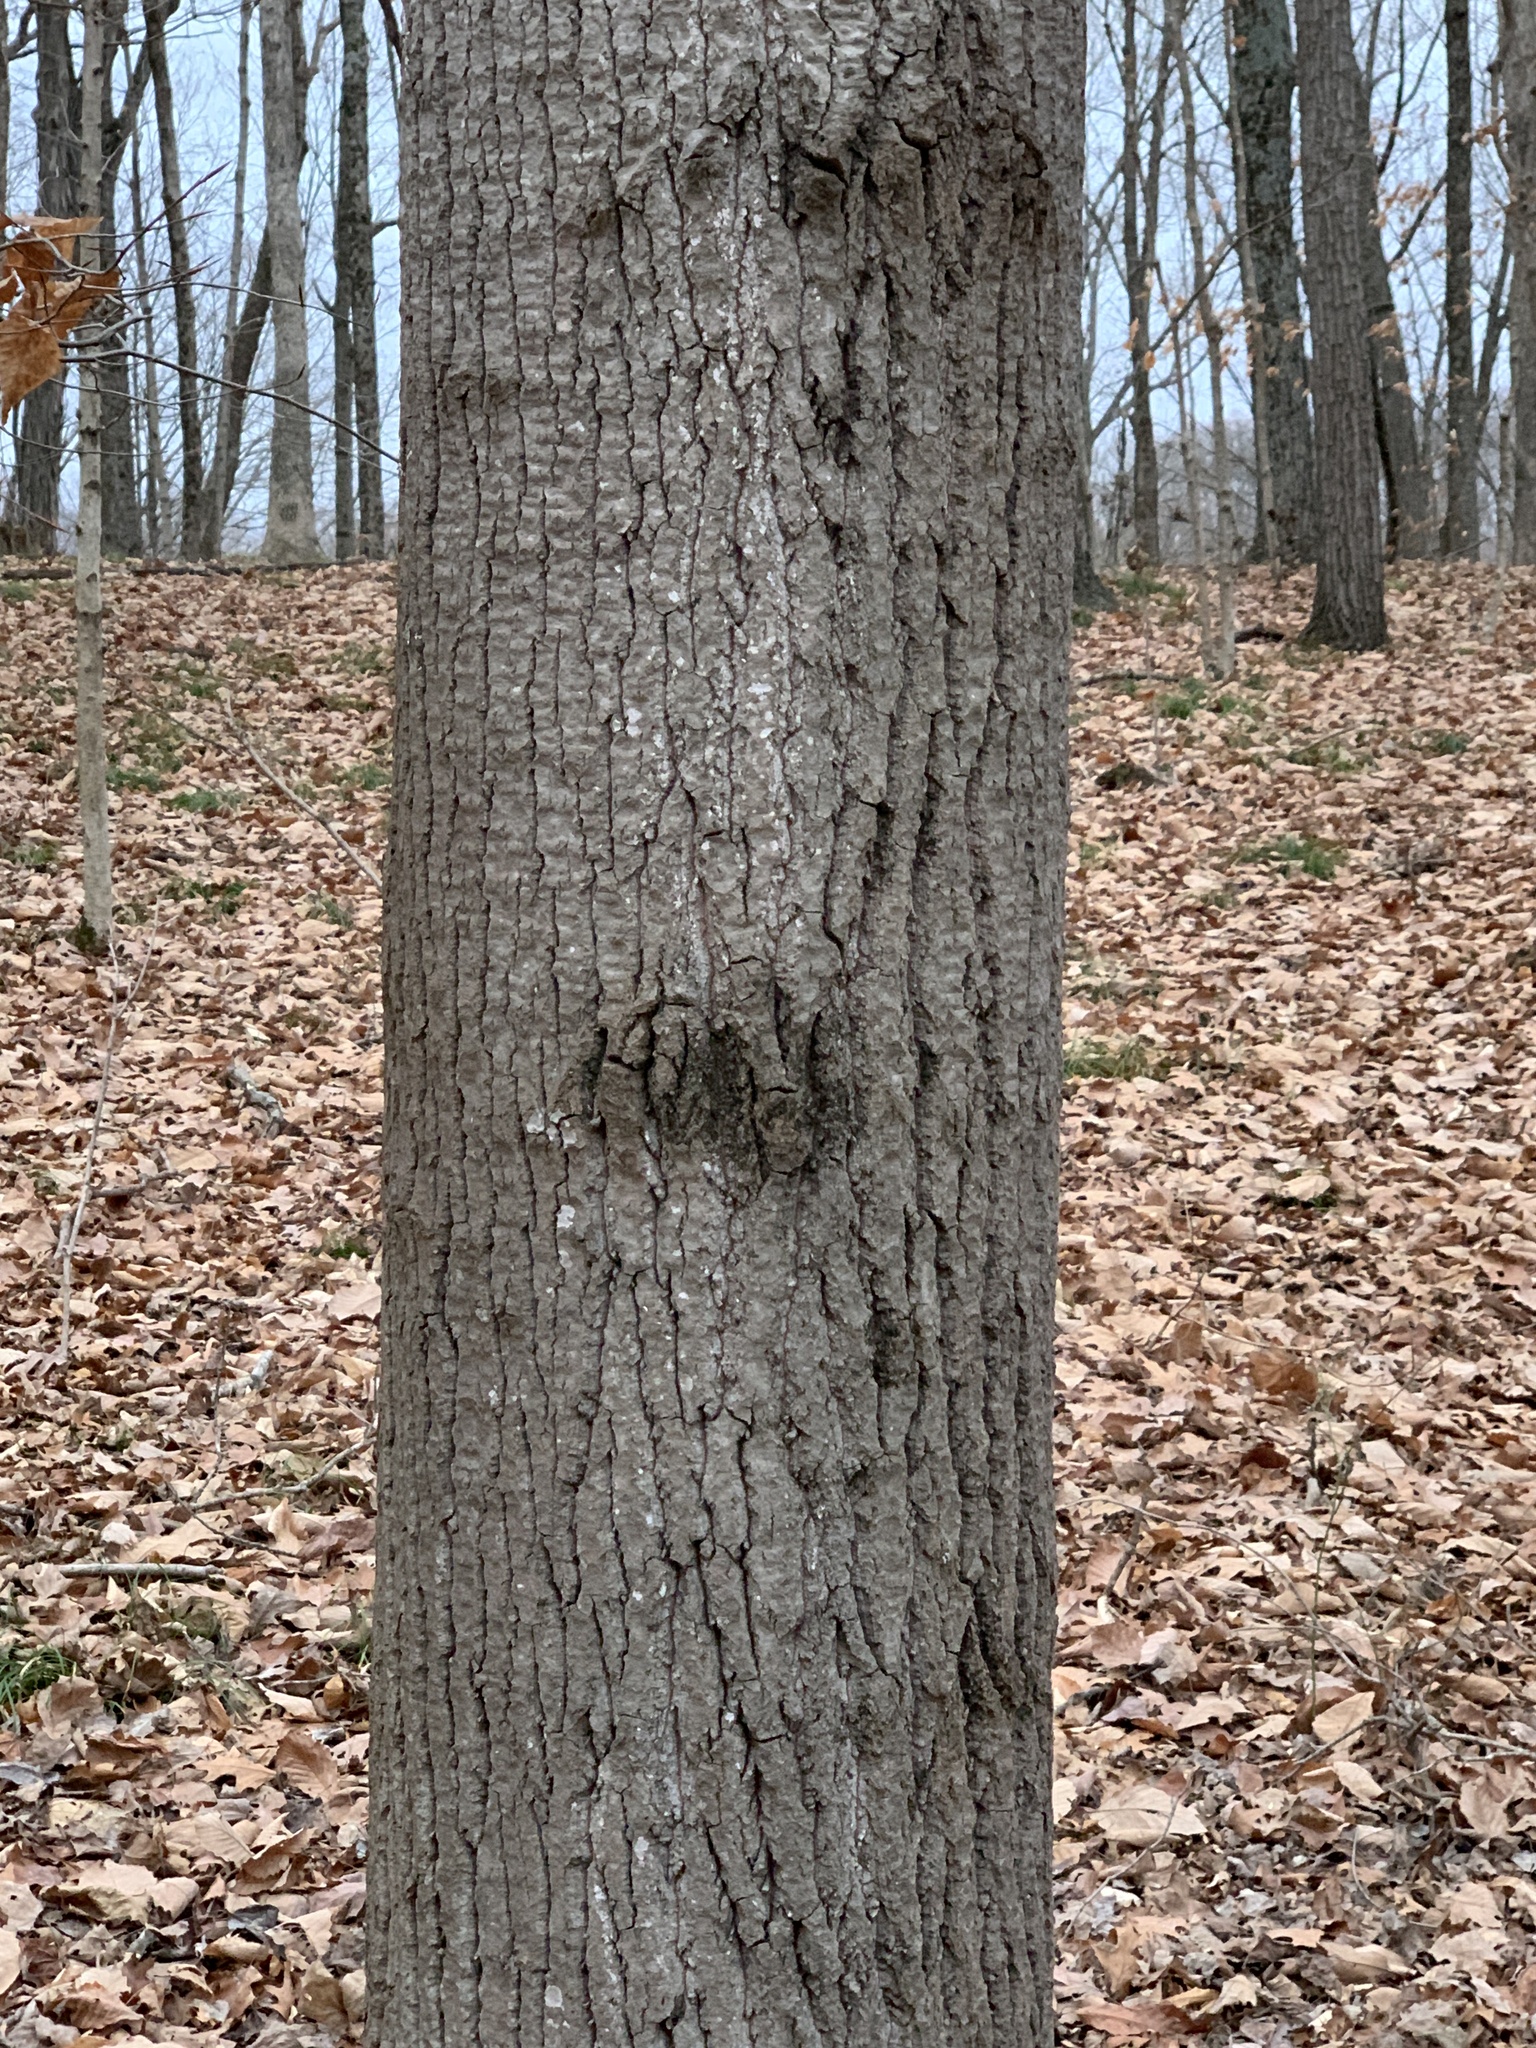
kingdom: Plantae
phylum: Tracheophyta
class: Magnoliopsida
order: Malpighiales
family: Salicaceae
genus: Populus
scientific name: Populus grandidentata
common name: Bigtooth aspen
